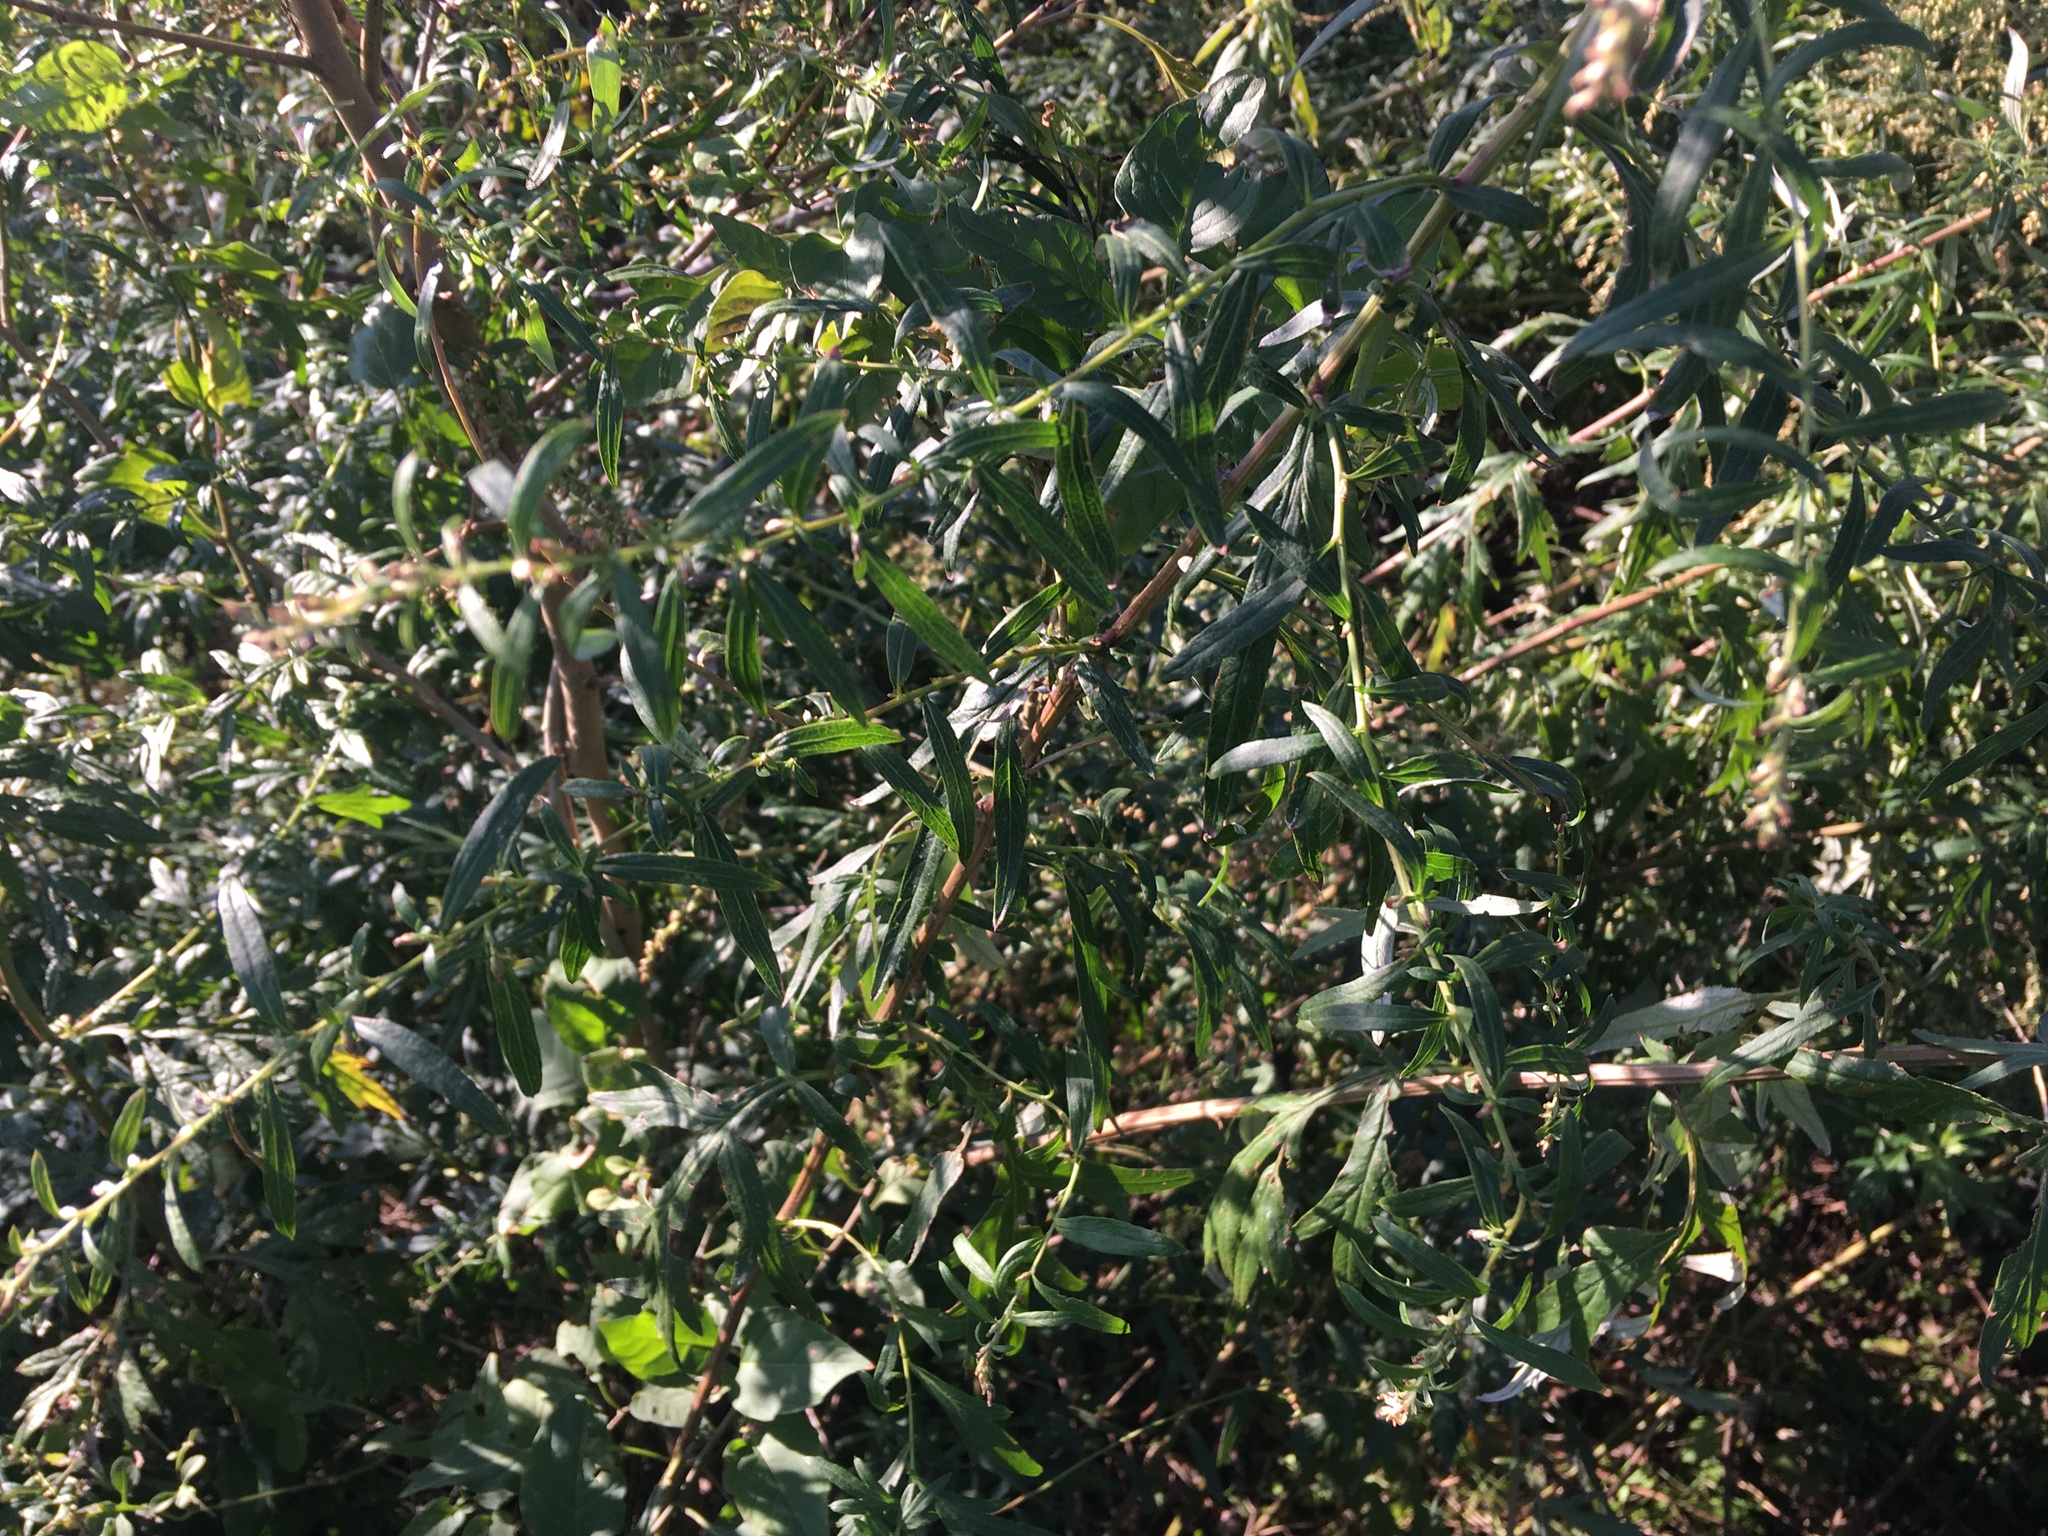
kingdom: Plantae
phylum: Tracheophyta
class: Magnoliopsida
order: Asterales
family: Asteraceae
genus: Artemisia
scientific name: Artemisia vulgaris
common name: Mugwort
